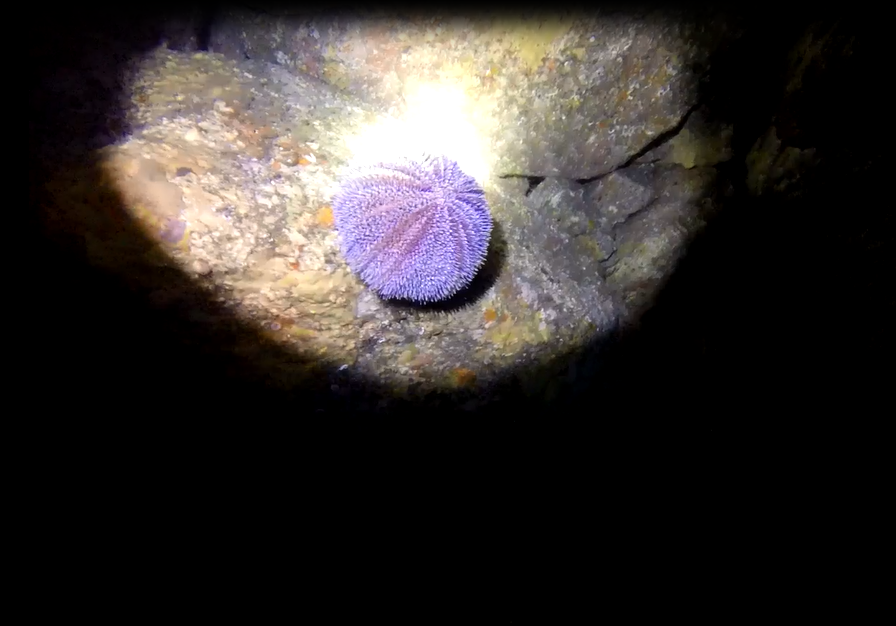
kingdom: Animalia
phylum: Echinodermata
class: Echinoidea
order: Camarodonta
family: Toxopneustidae
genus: Sphaerechinus
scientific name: Sphaerechinus granularis
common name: Violet sea urchin
